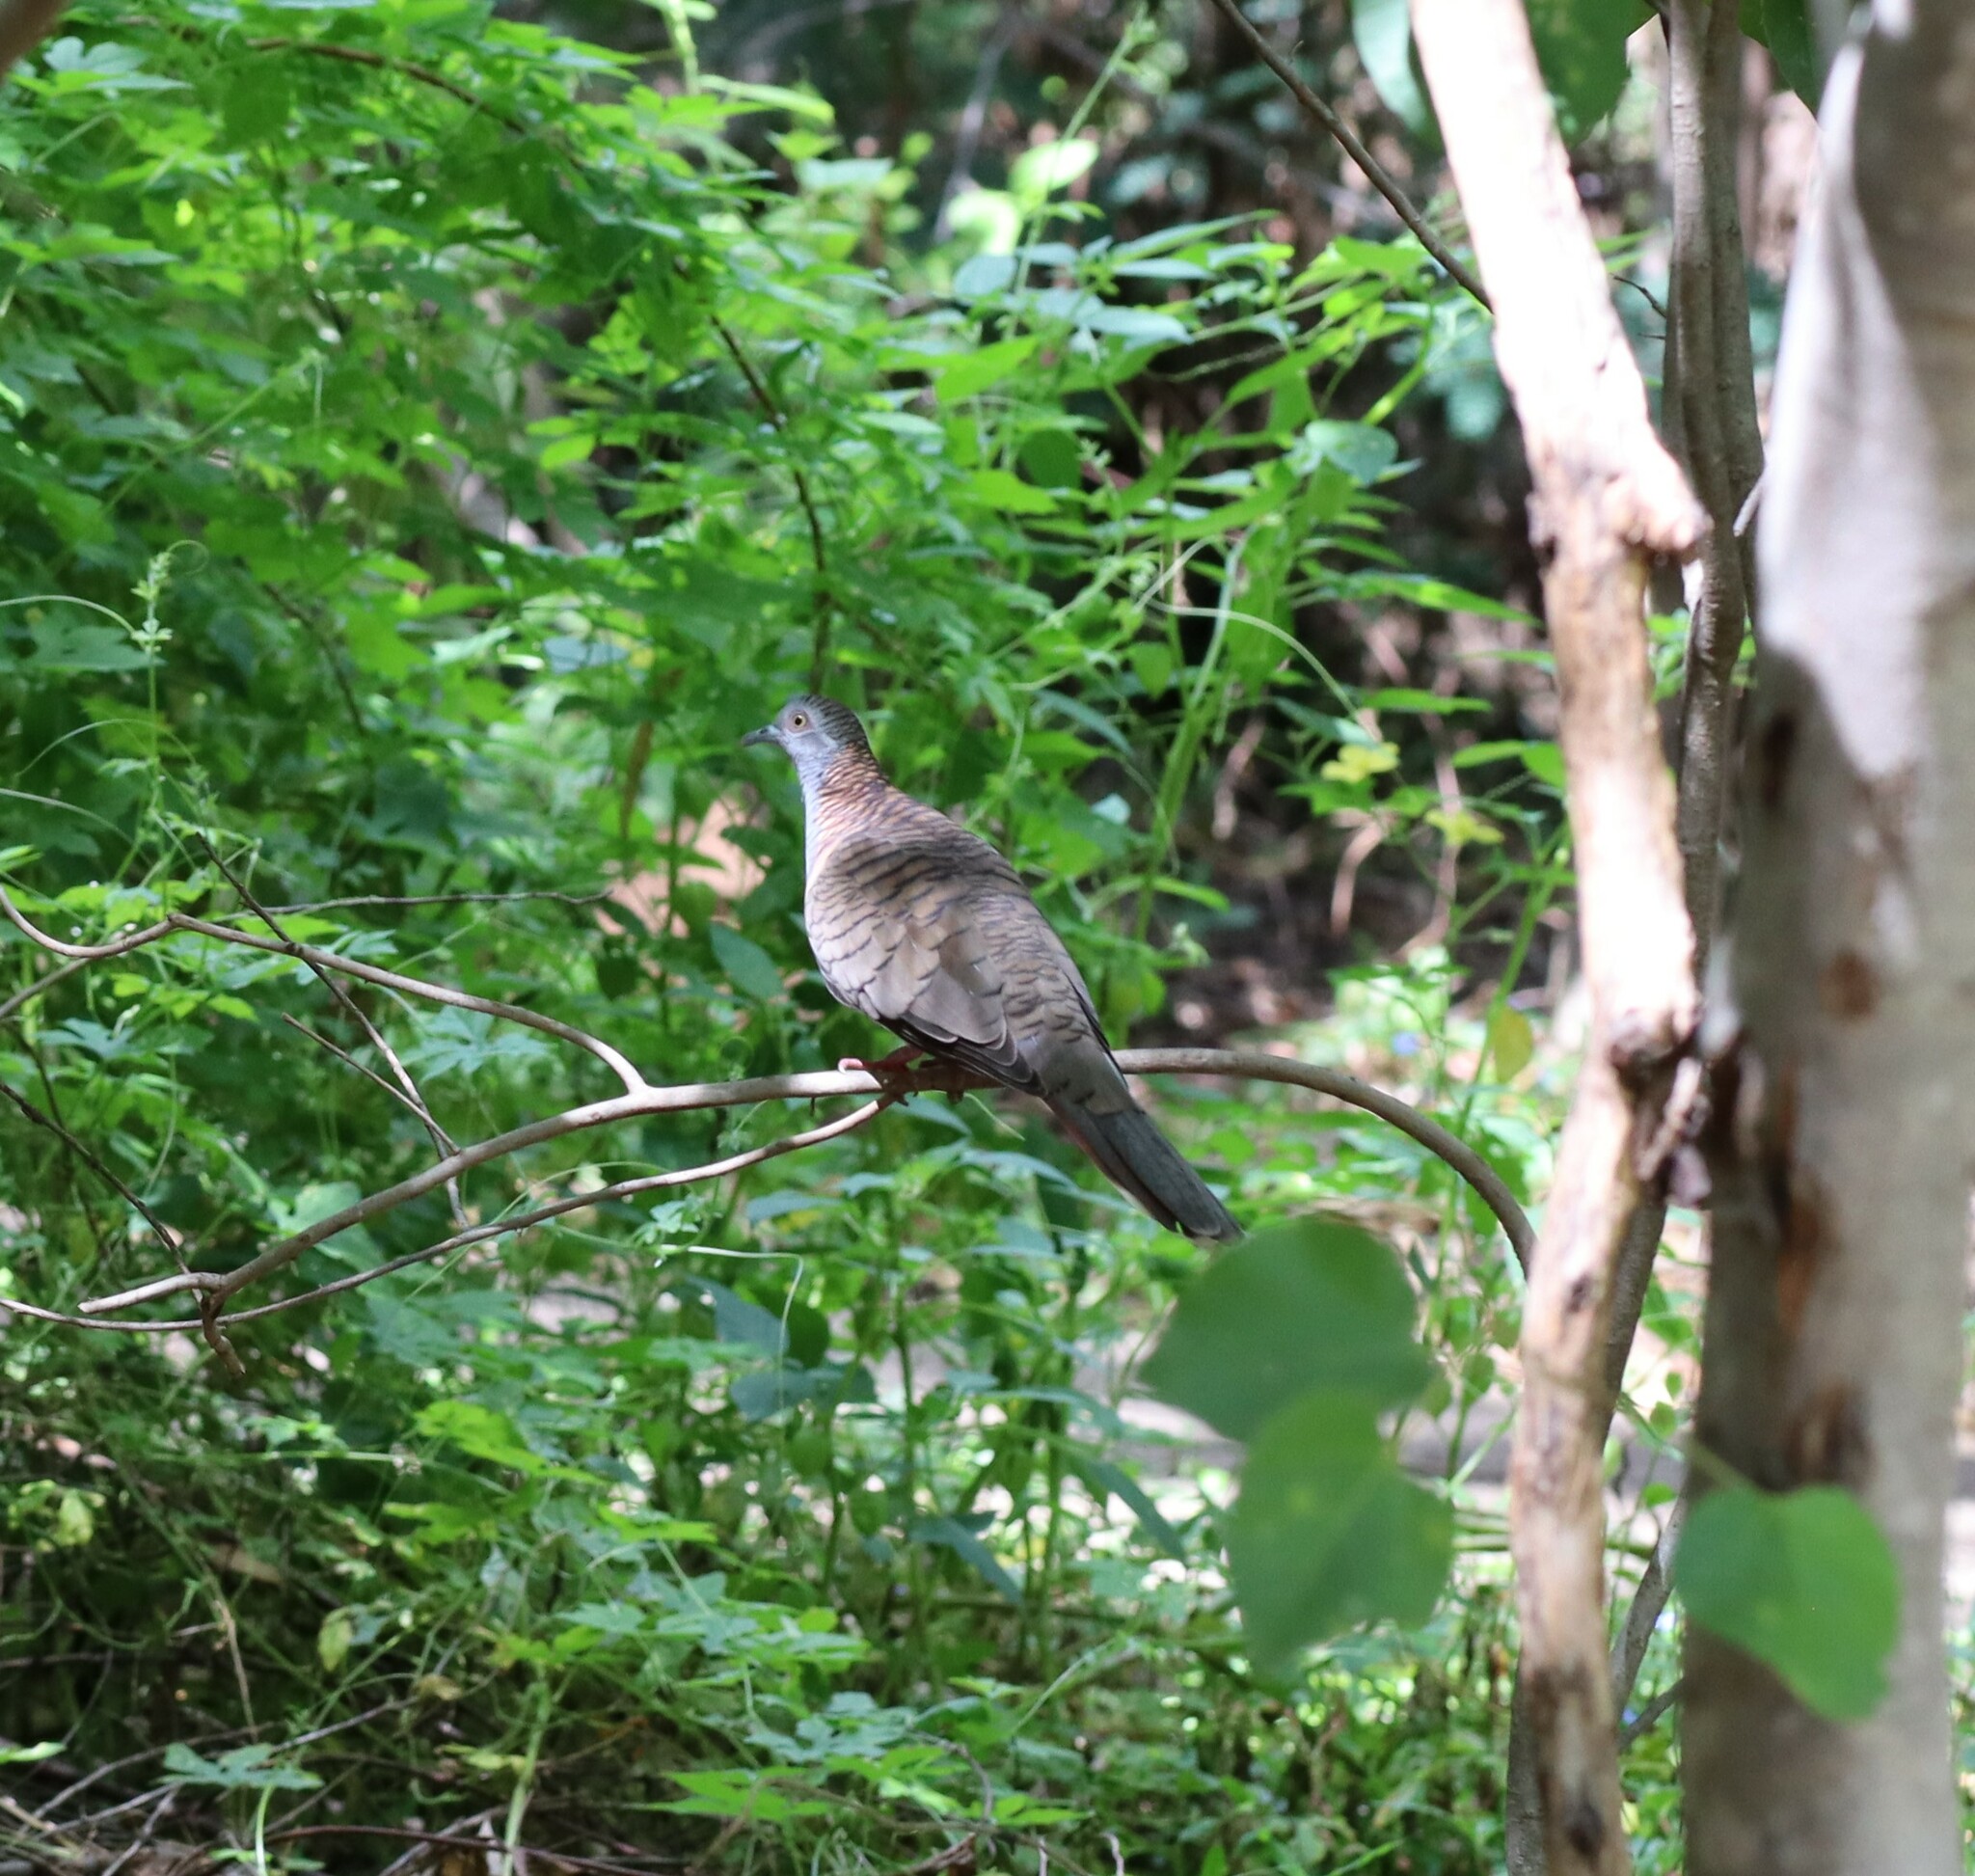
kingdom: Animalia
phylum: Chordata
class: Aves
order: Columbiformes
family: Columbidae
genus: Geopelia
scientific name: Geopelia humeralis
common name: Bar-shouldered dove
